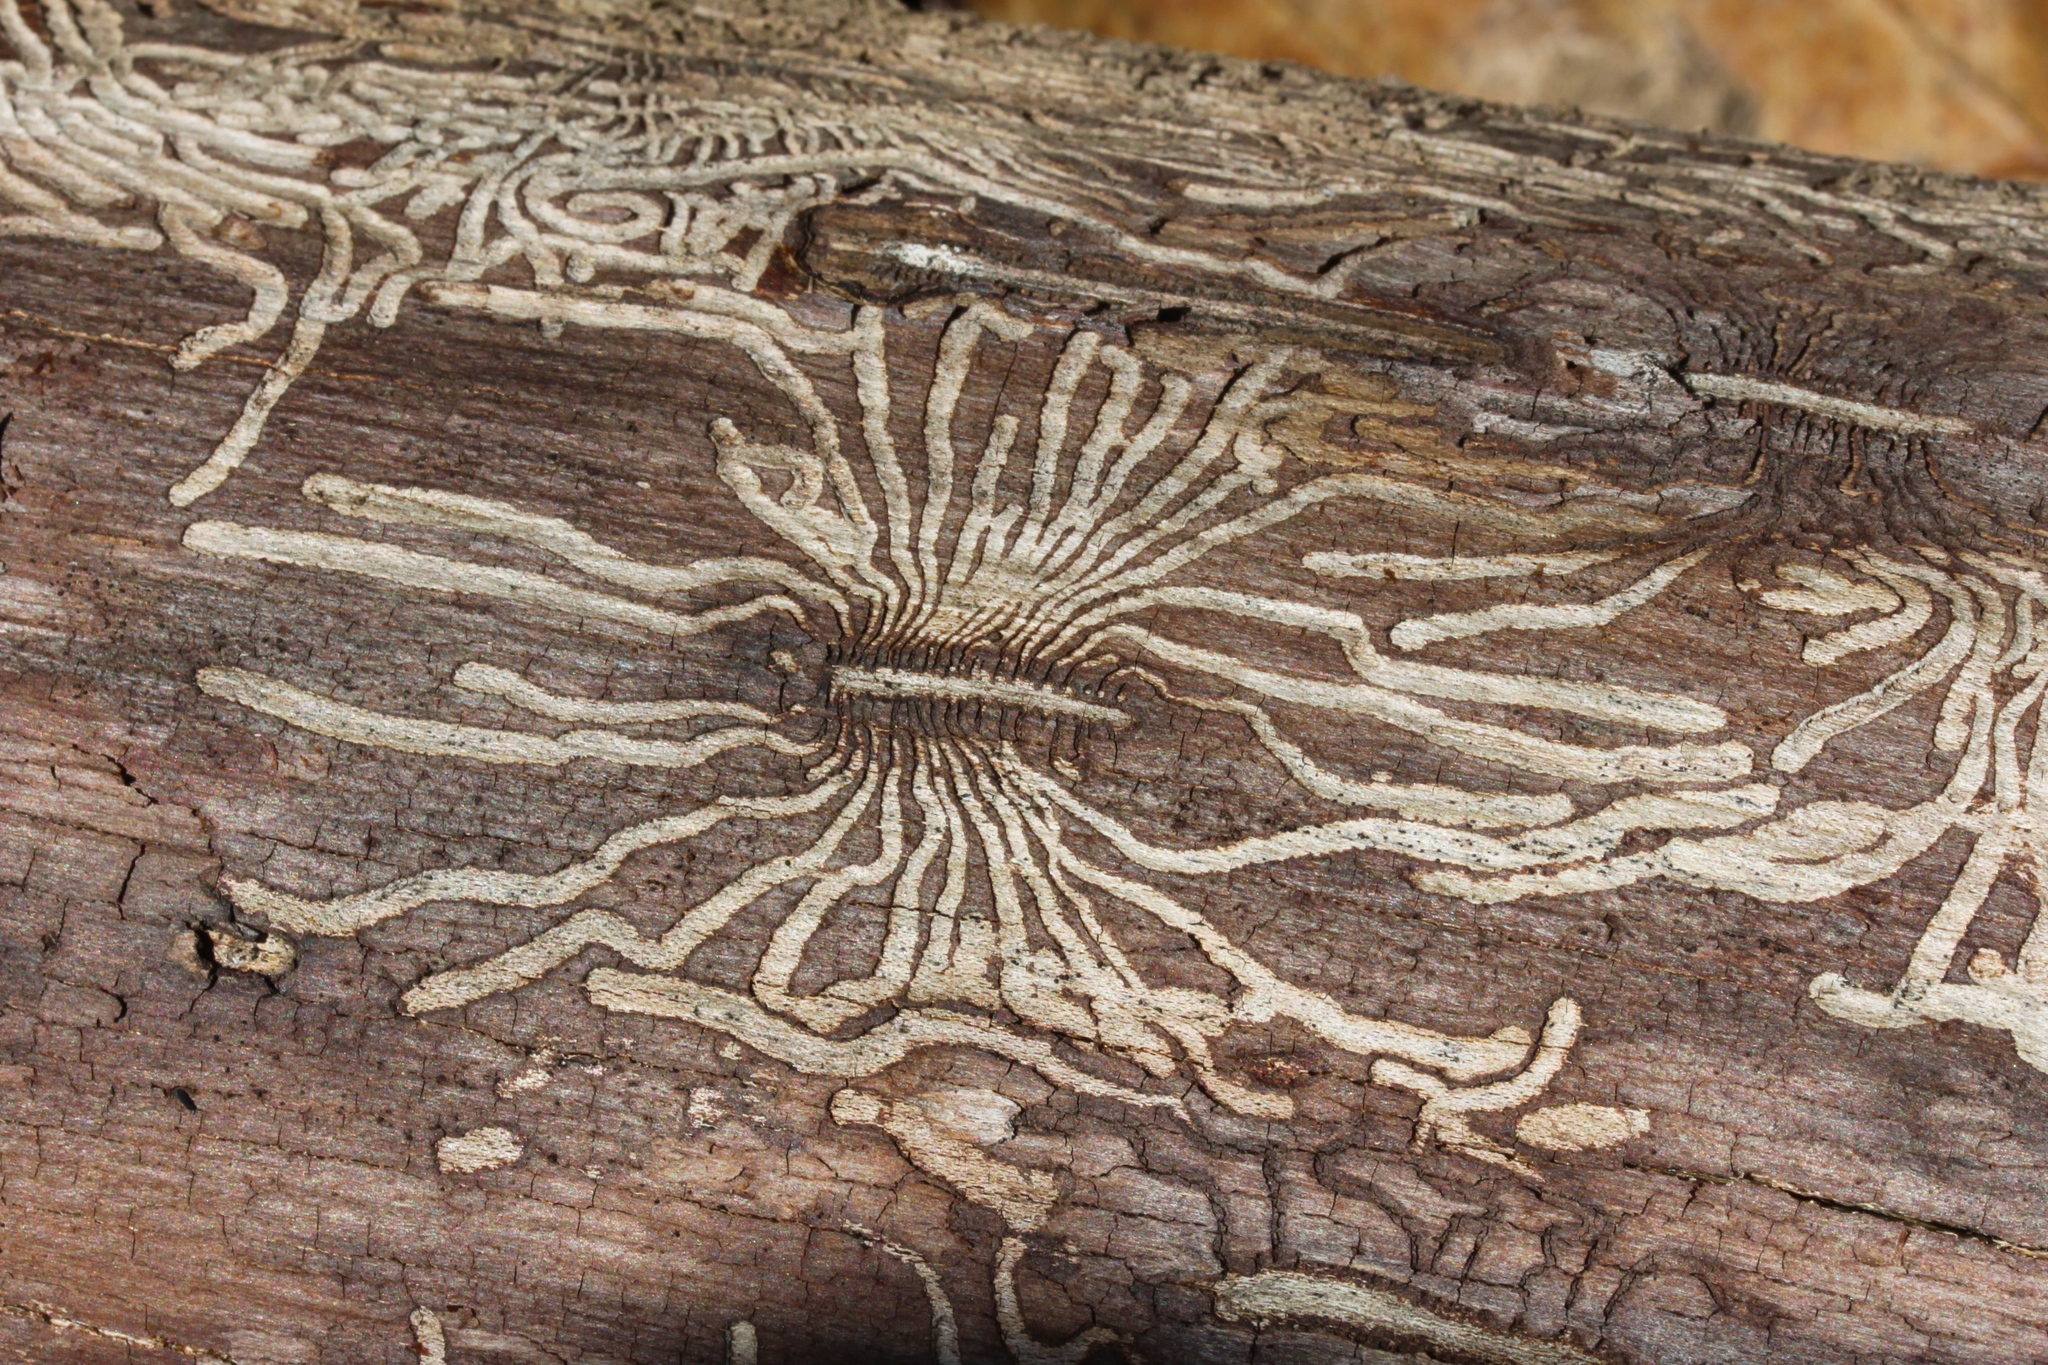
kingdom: Animalia
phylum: Arthropoda
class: Insecta
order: Coleoptera
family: Curculionidae
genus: Scolytus
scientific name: Scolytus multistriatus
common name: European elm bark beetle
